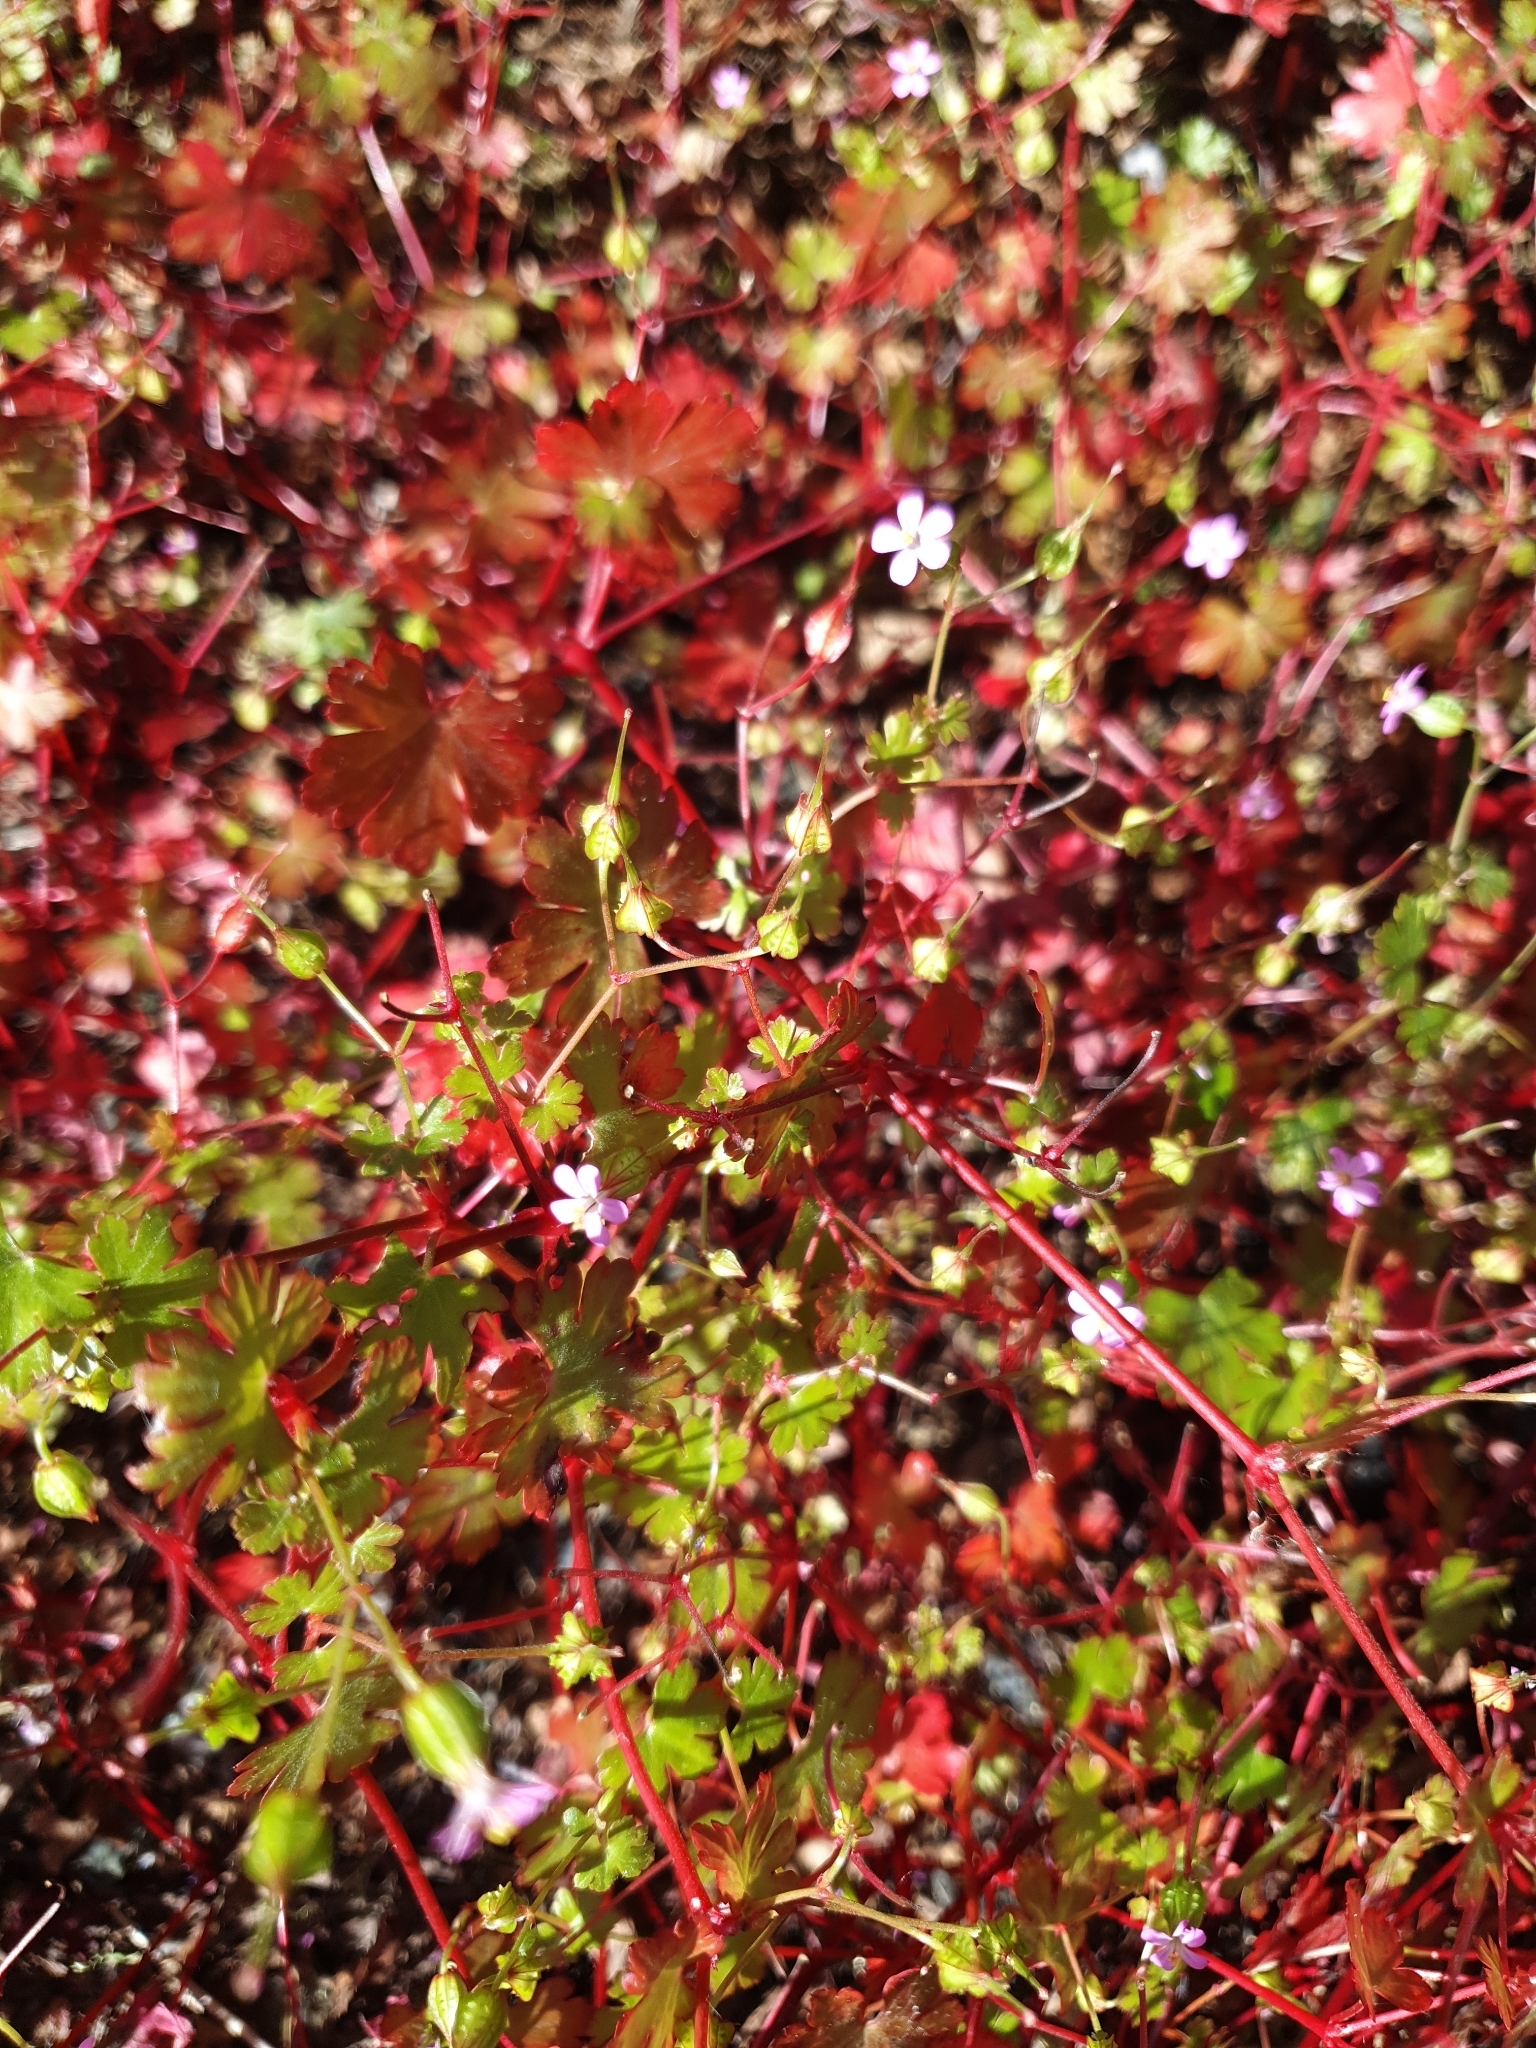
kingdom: Plantae
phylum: Tracheophyta
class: Magnoliopsida
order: Geraniales
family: Geraniaceae
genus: Geranium
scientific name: Geranium lucidum
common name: Shining crane's-bill
